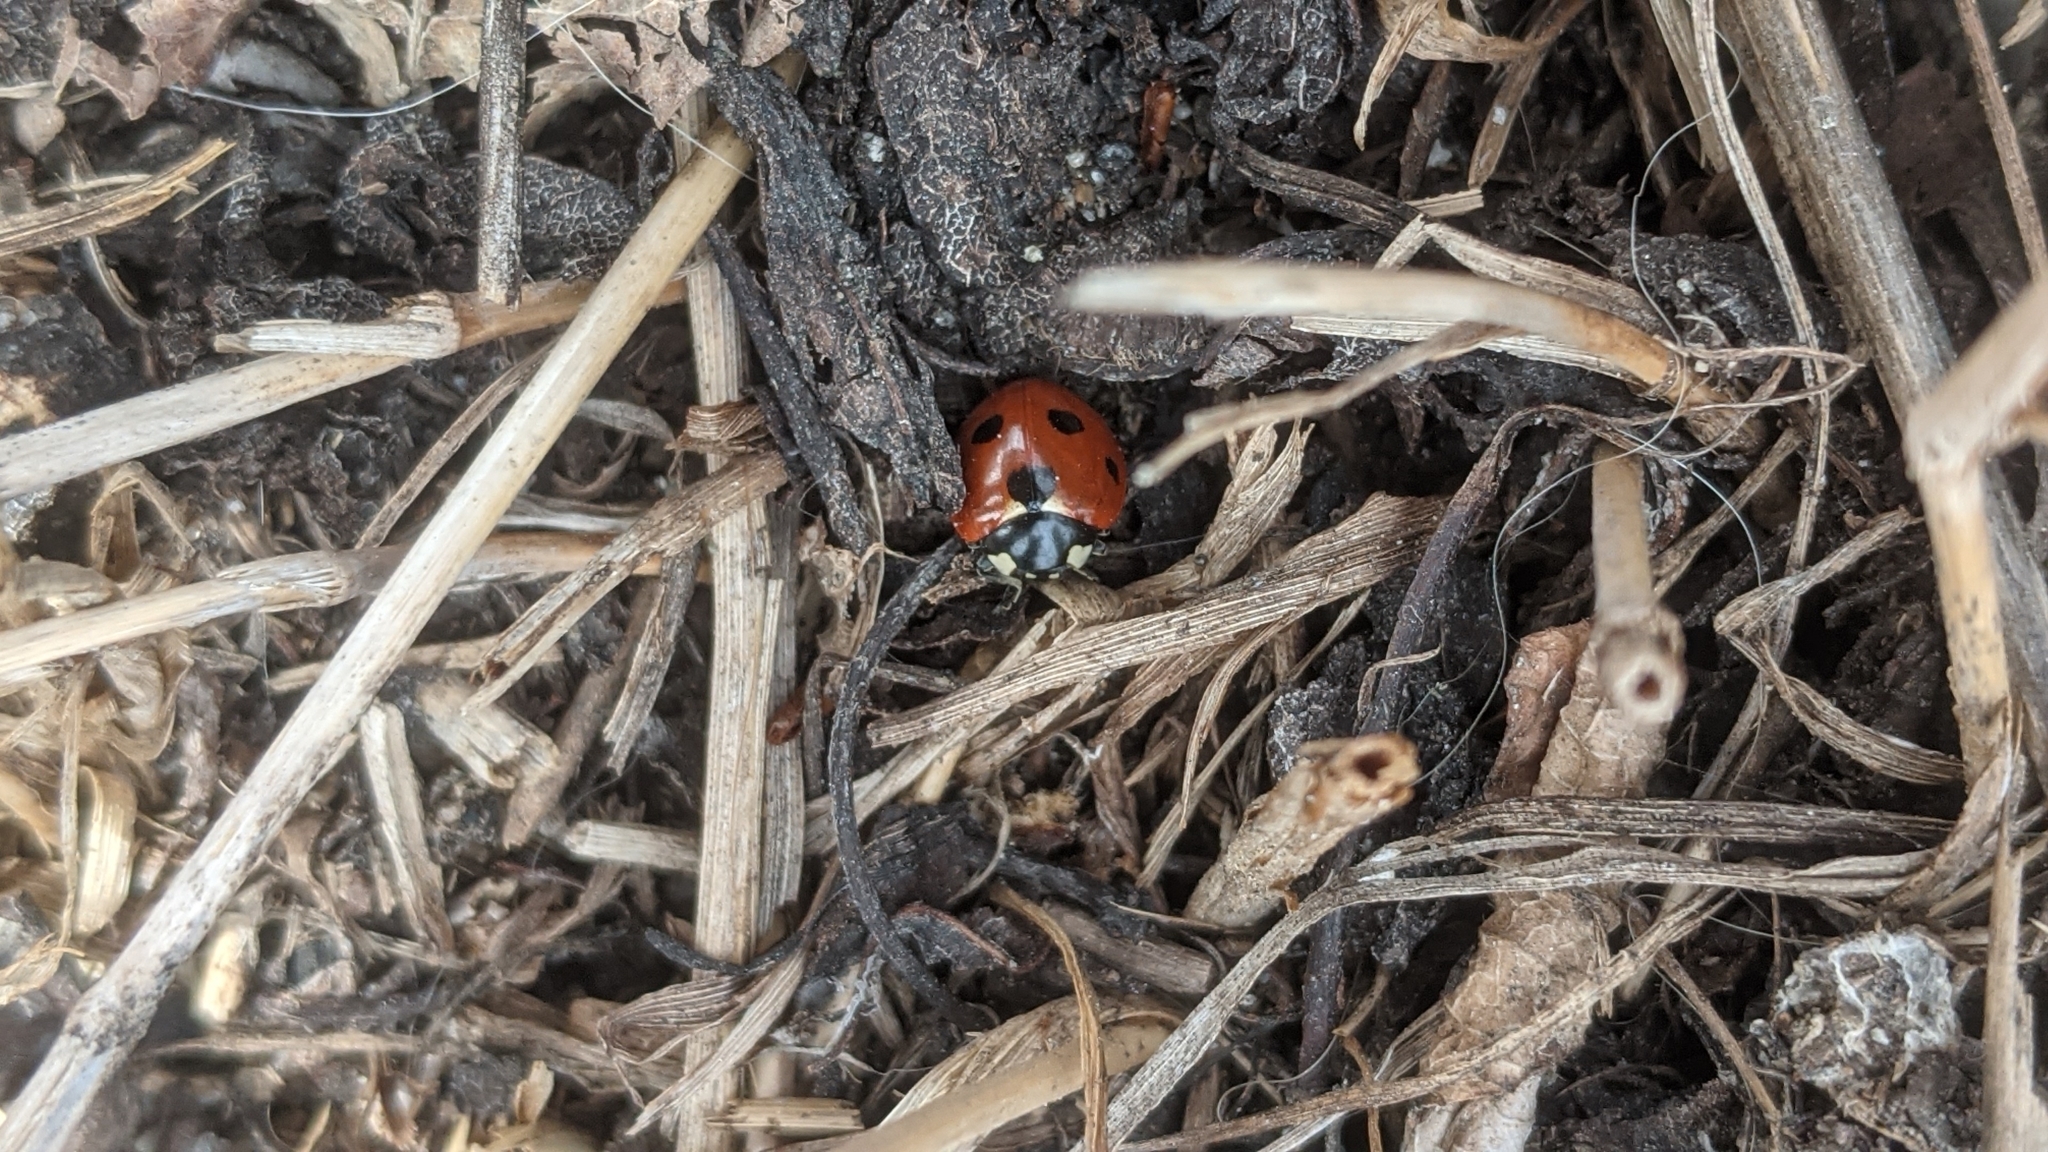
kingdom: Animalia
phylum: Arthropoda
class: Insecta
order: Coleoptera
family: Coccinellidae
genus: Coccinella
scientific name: Coccinella septempunctata
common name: Sevenspotted lady beetle
